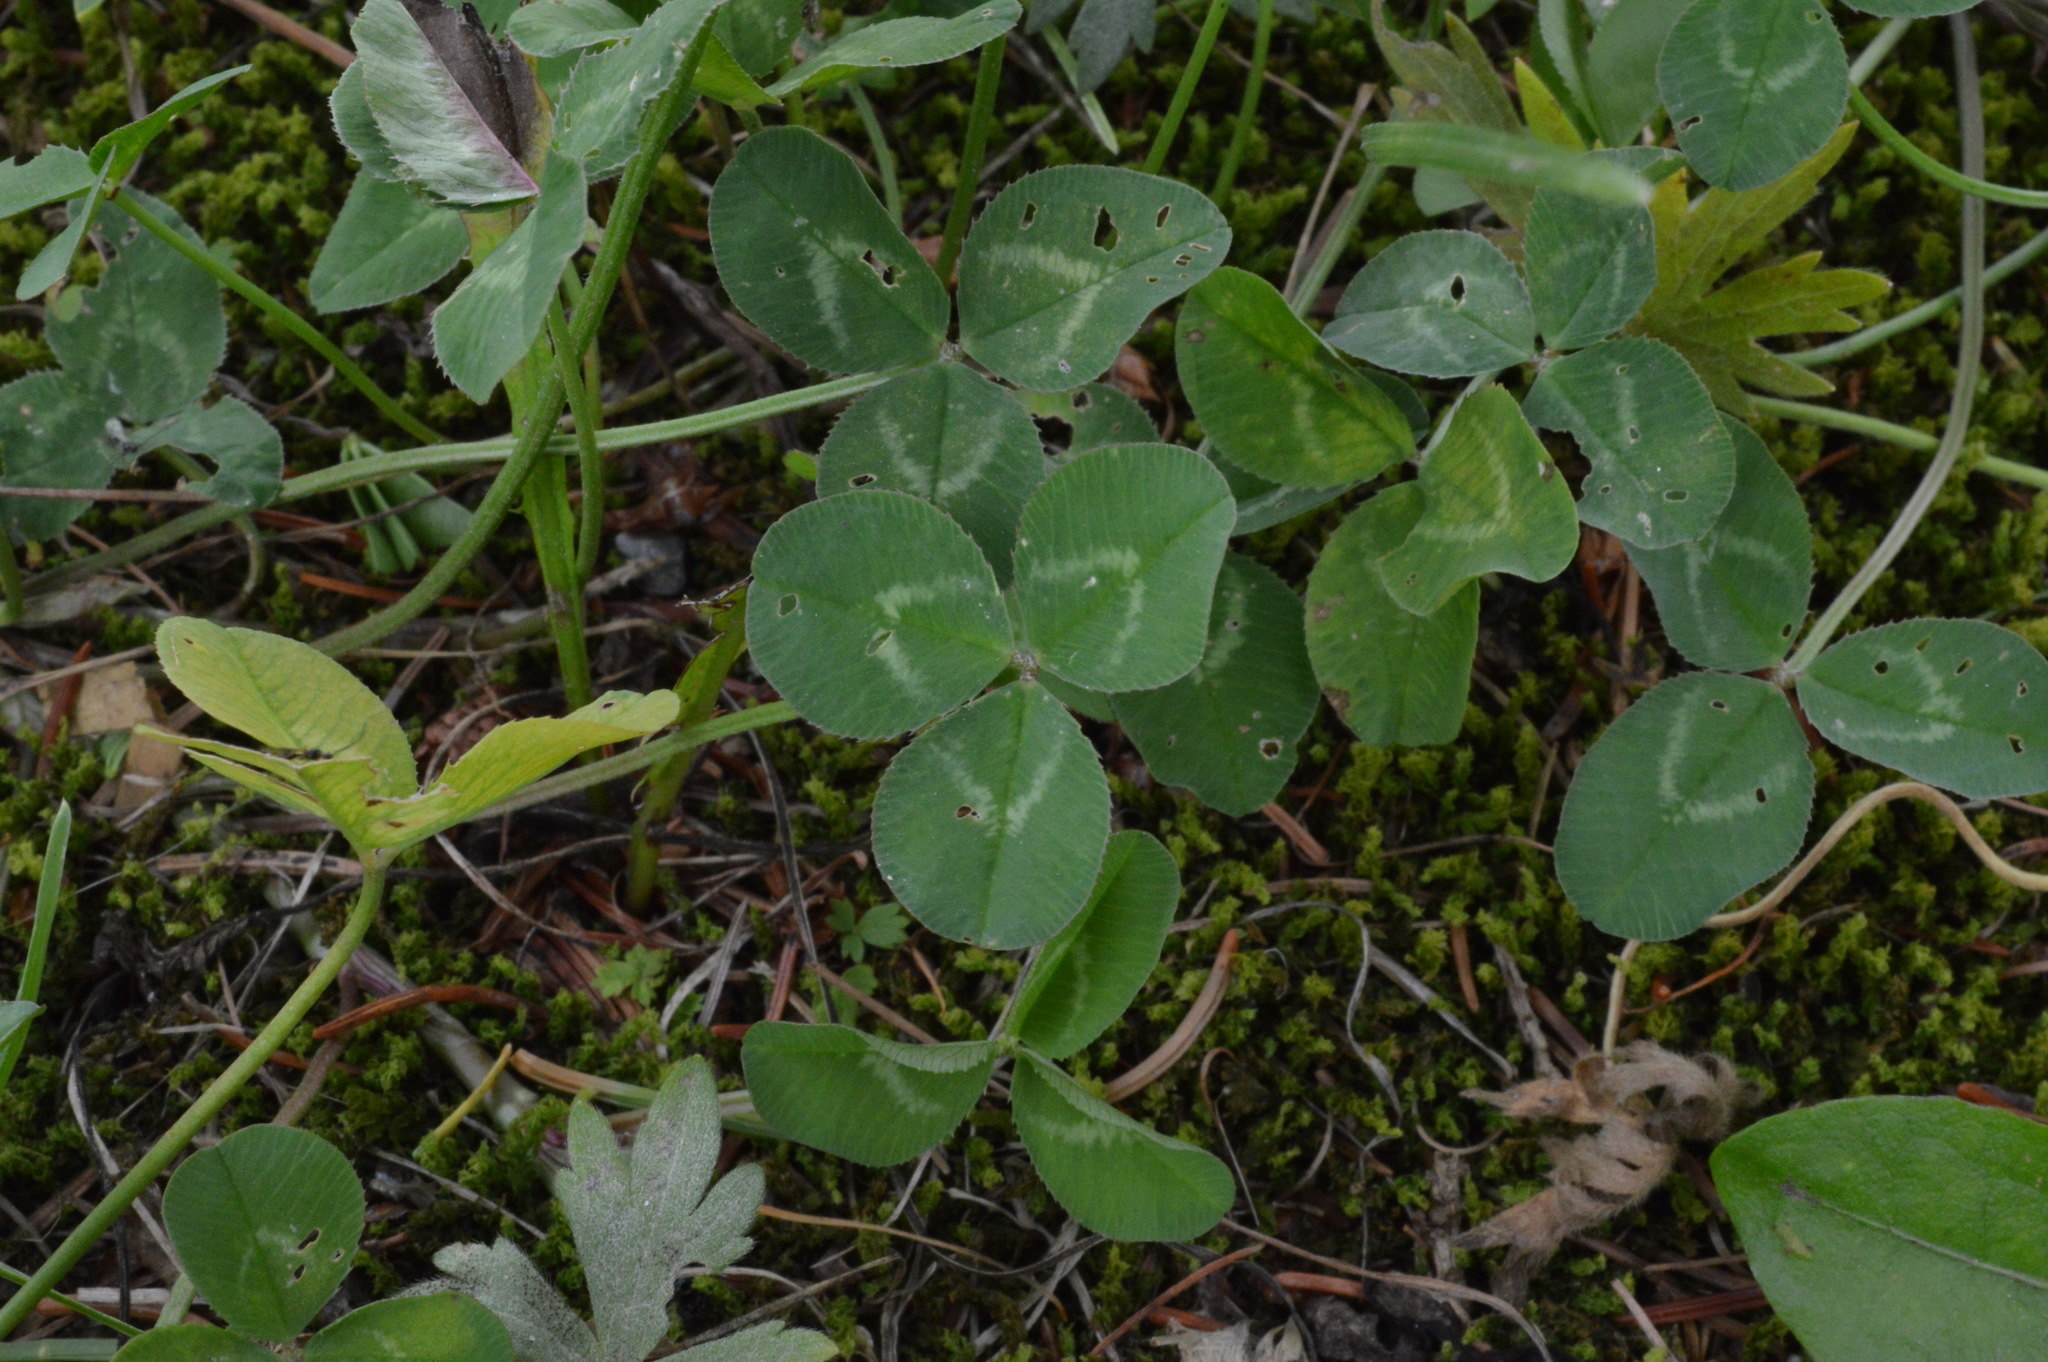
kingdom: Plantae
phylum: Tracheophyta
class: Magnoliopsida
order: Fabales
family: Fabaceae
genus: Trifolium
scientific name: Trifolium repens
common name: White clover
